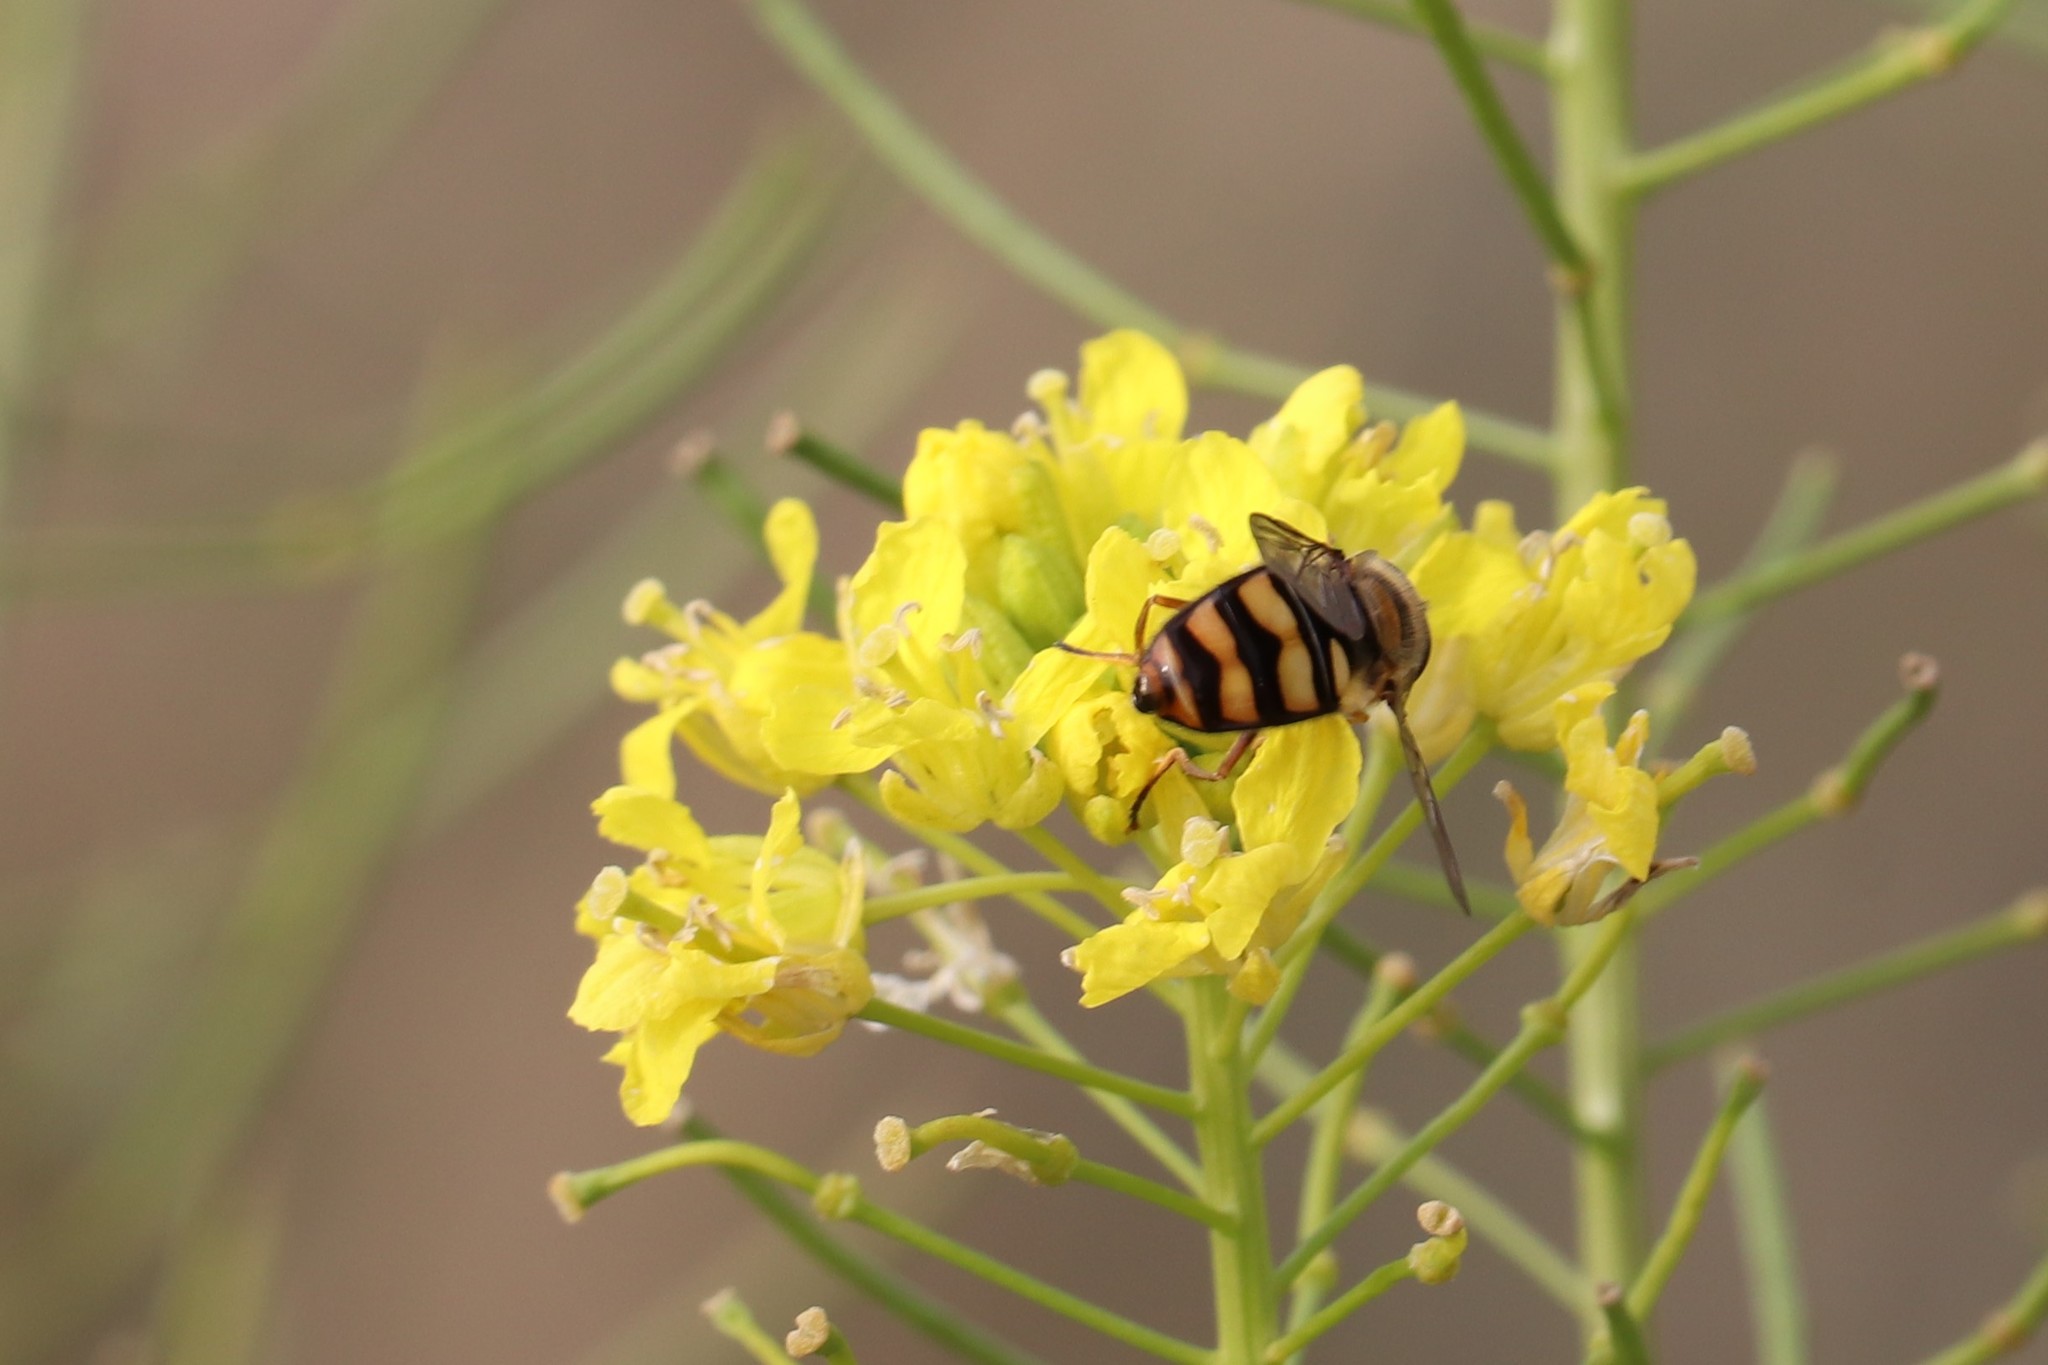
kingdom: Animalia
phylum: Arthropoda
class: Insecta
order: Diptera
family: Syrphidae
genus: Eupeodes
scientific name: Eupeodes fumipennis
